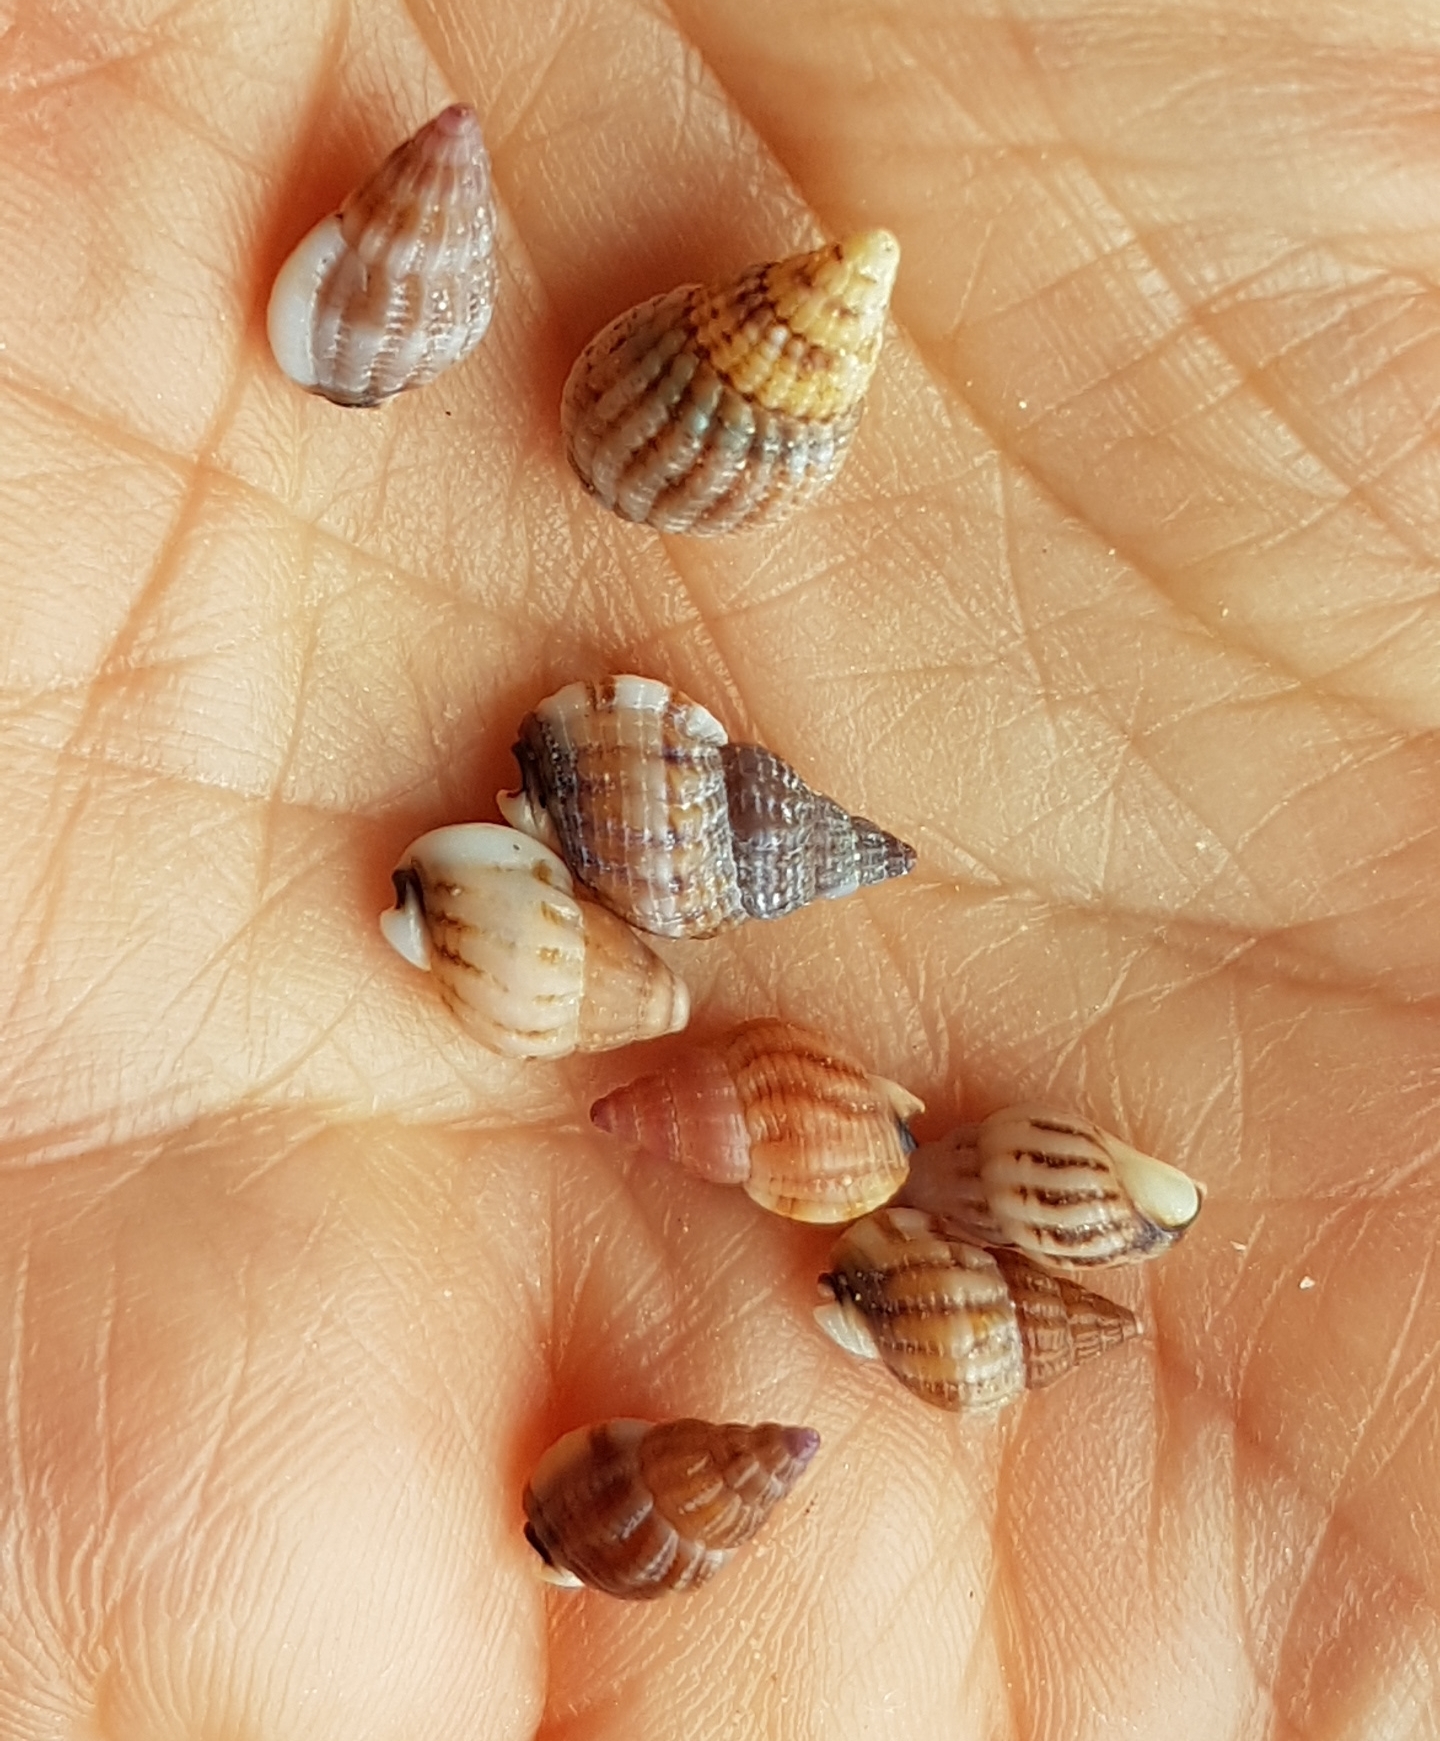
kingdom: Animalia
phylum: Mollusca
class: Gastropoda
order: Neogastropoda
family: Nassariidae
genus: Tritia
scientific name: Tritia incrassata
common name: Thick-lipped dog whelk
